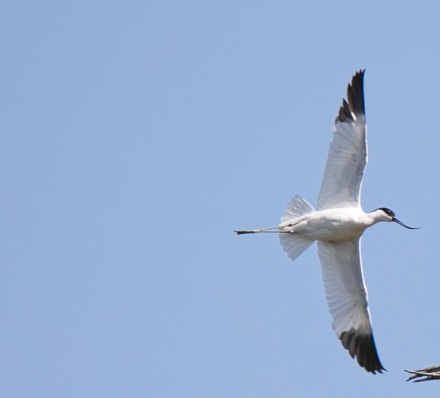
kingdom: Animalia
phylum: Chordata
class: Aves
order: Charadriiformes
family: Recurvirostridae
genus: Recurvirostra
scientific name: Recurvirostra avosetta
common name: Pied avocet
